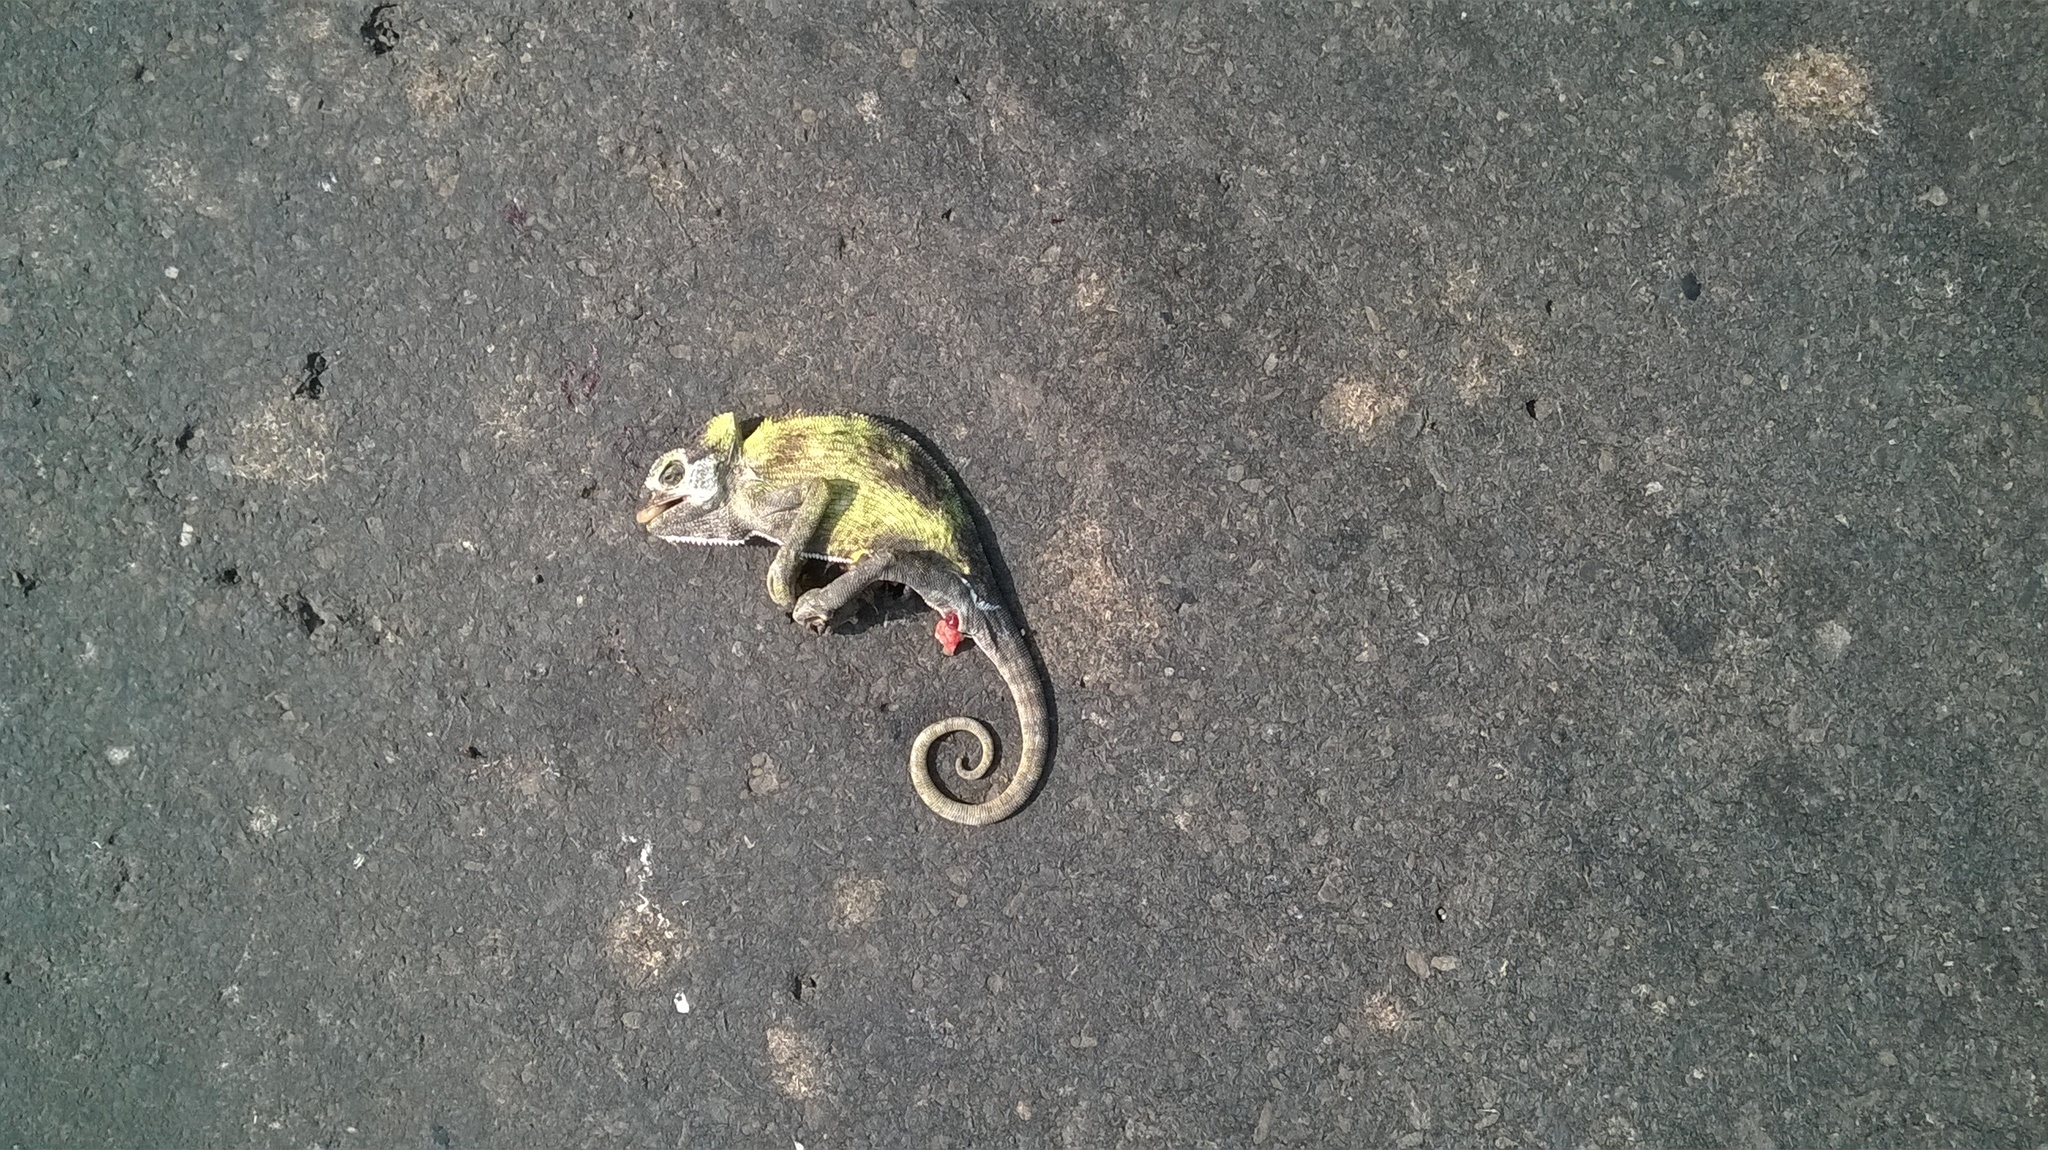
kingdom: Animalia
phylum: Chordata
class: Squamata
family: Chamaeleonidae
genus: Chamaeleo
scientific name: Chamaeleo zeylanicus
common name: Indian chameleon
